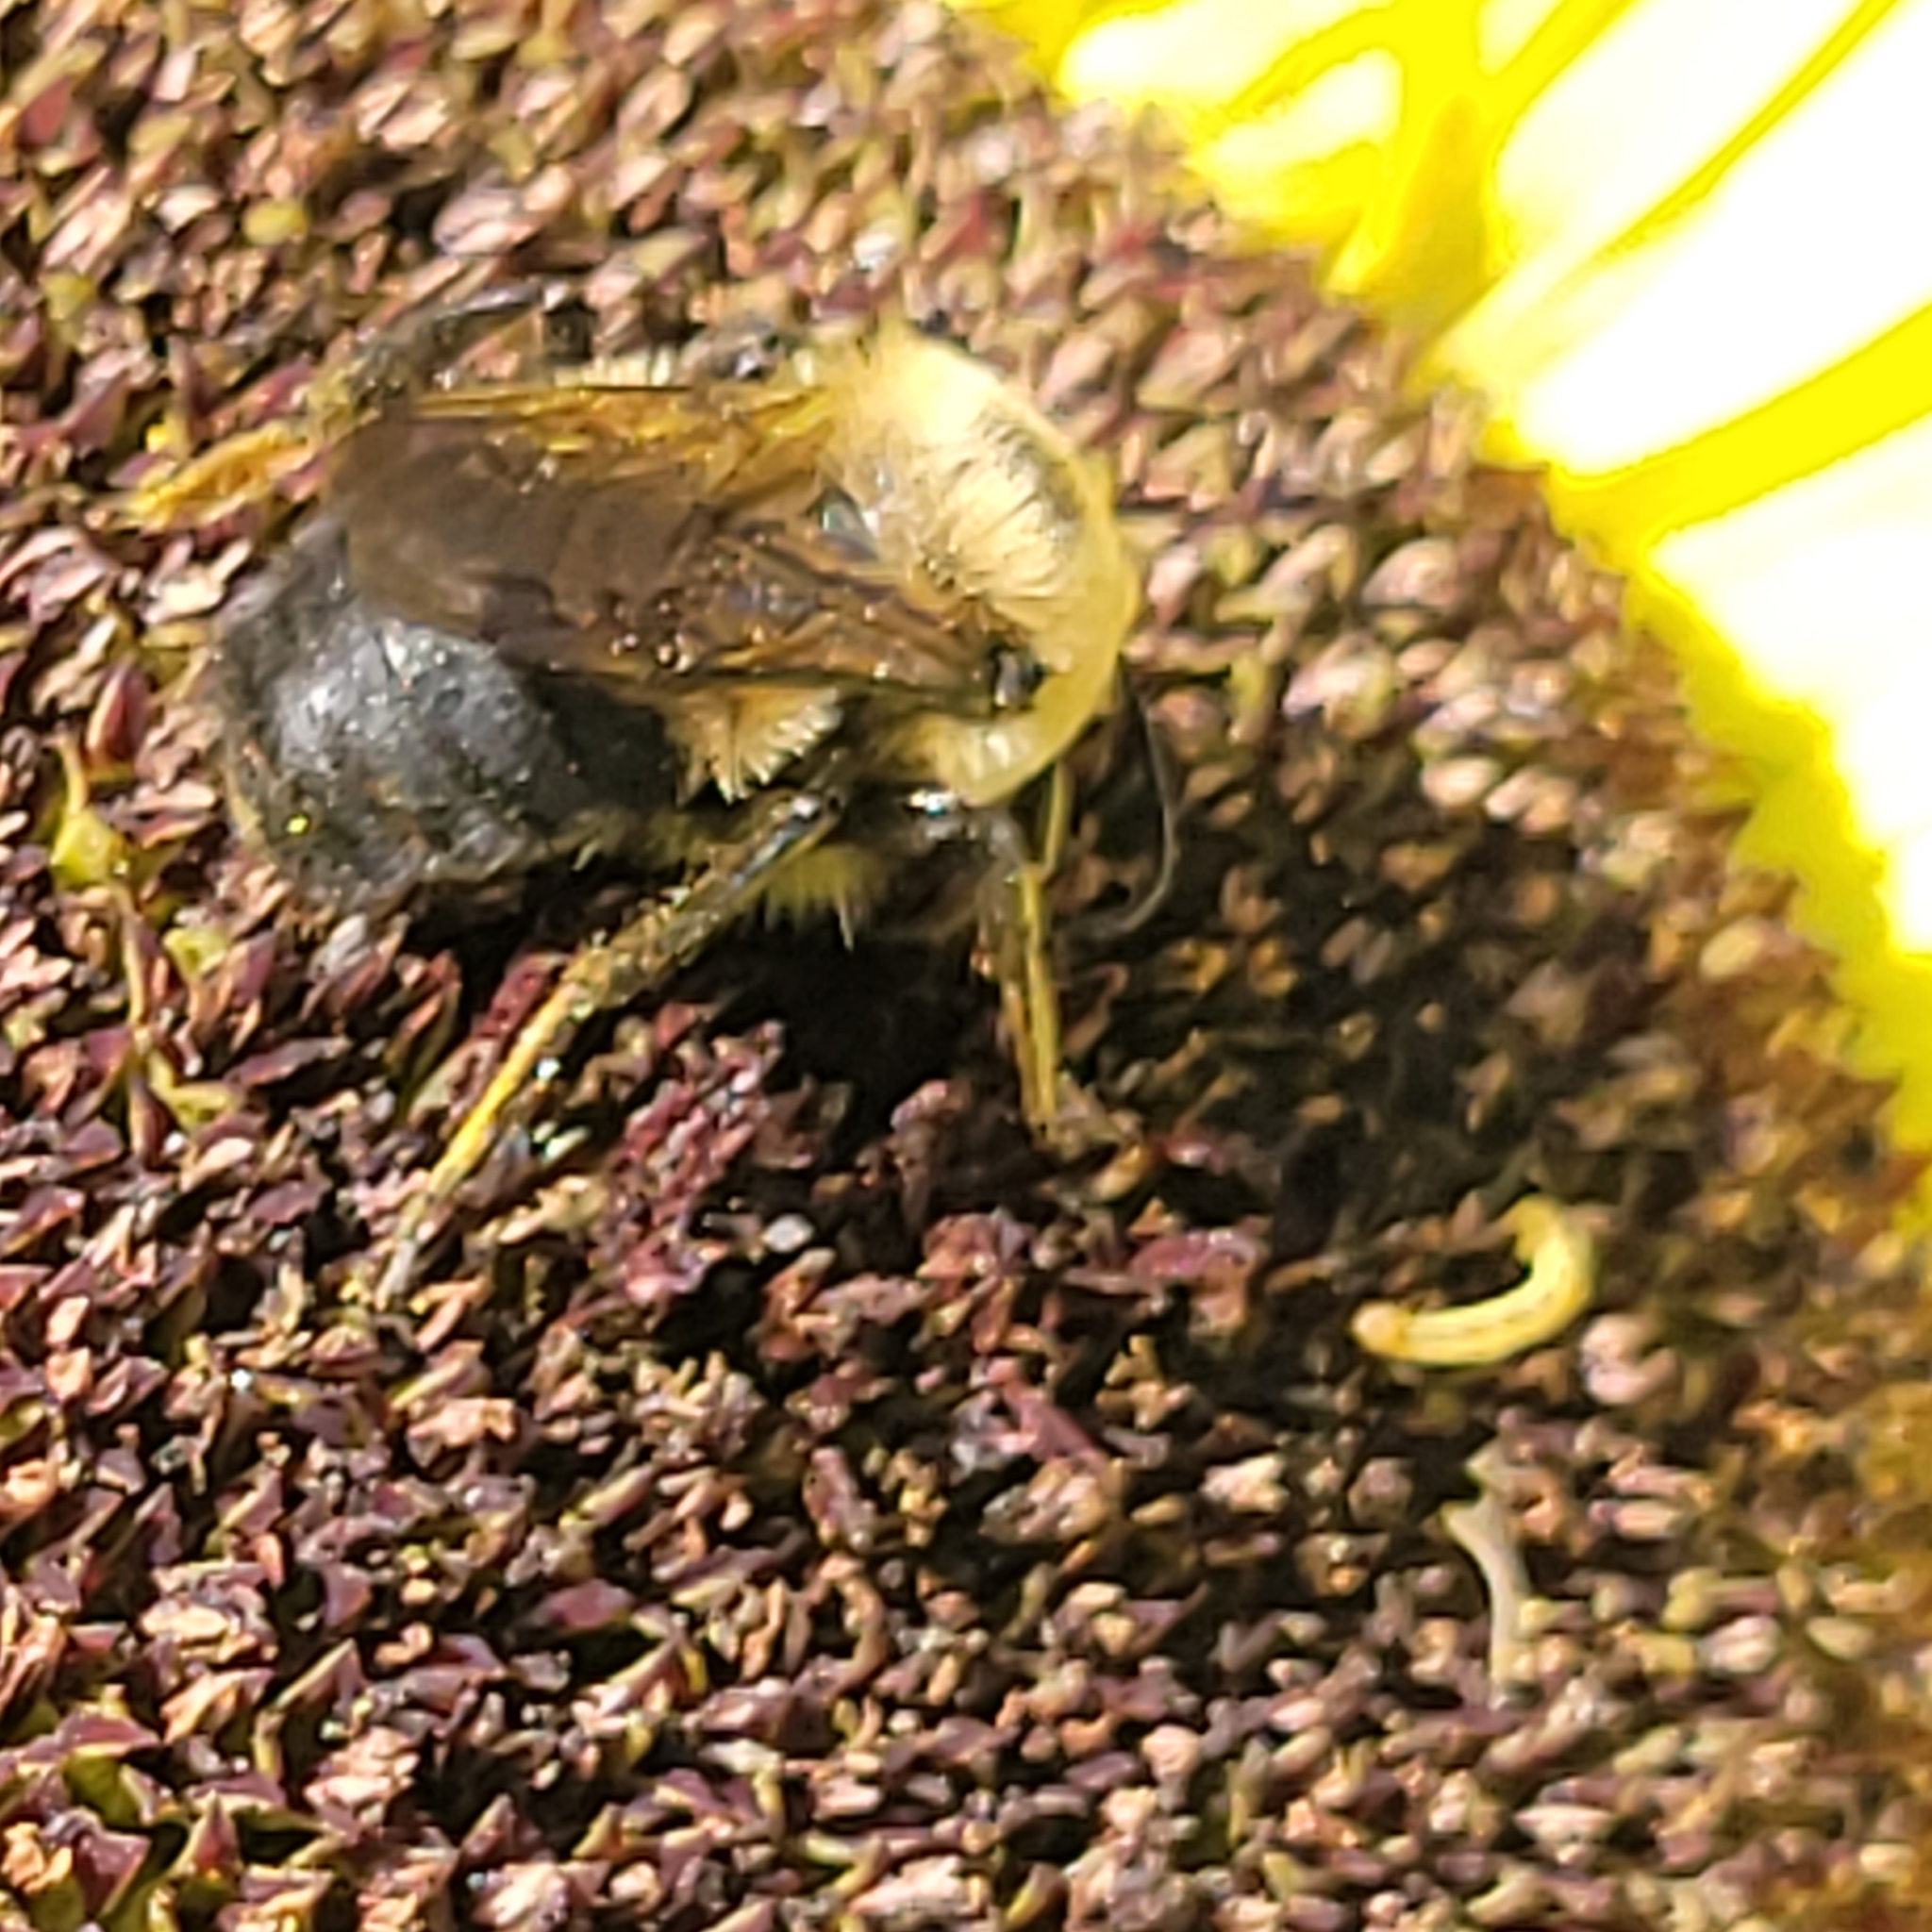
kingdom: Animalia
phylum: Arthropoda
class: Insecta
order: Hymenoptera
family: Apidae
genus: Bombus
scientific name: Bombus griseocollis
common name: Brown-belted bumble bee
